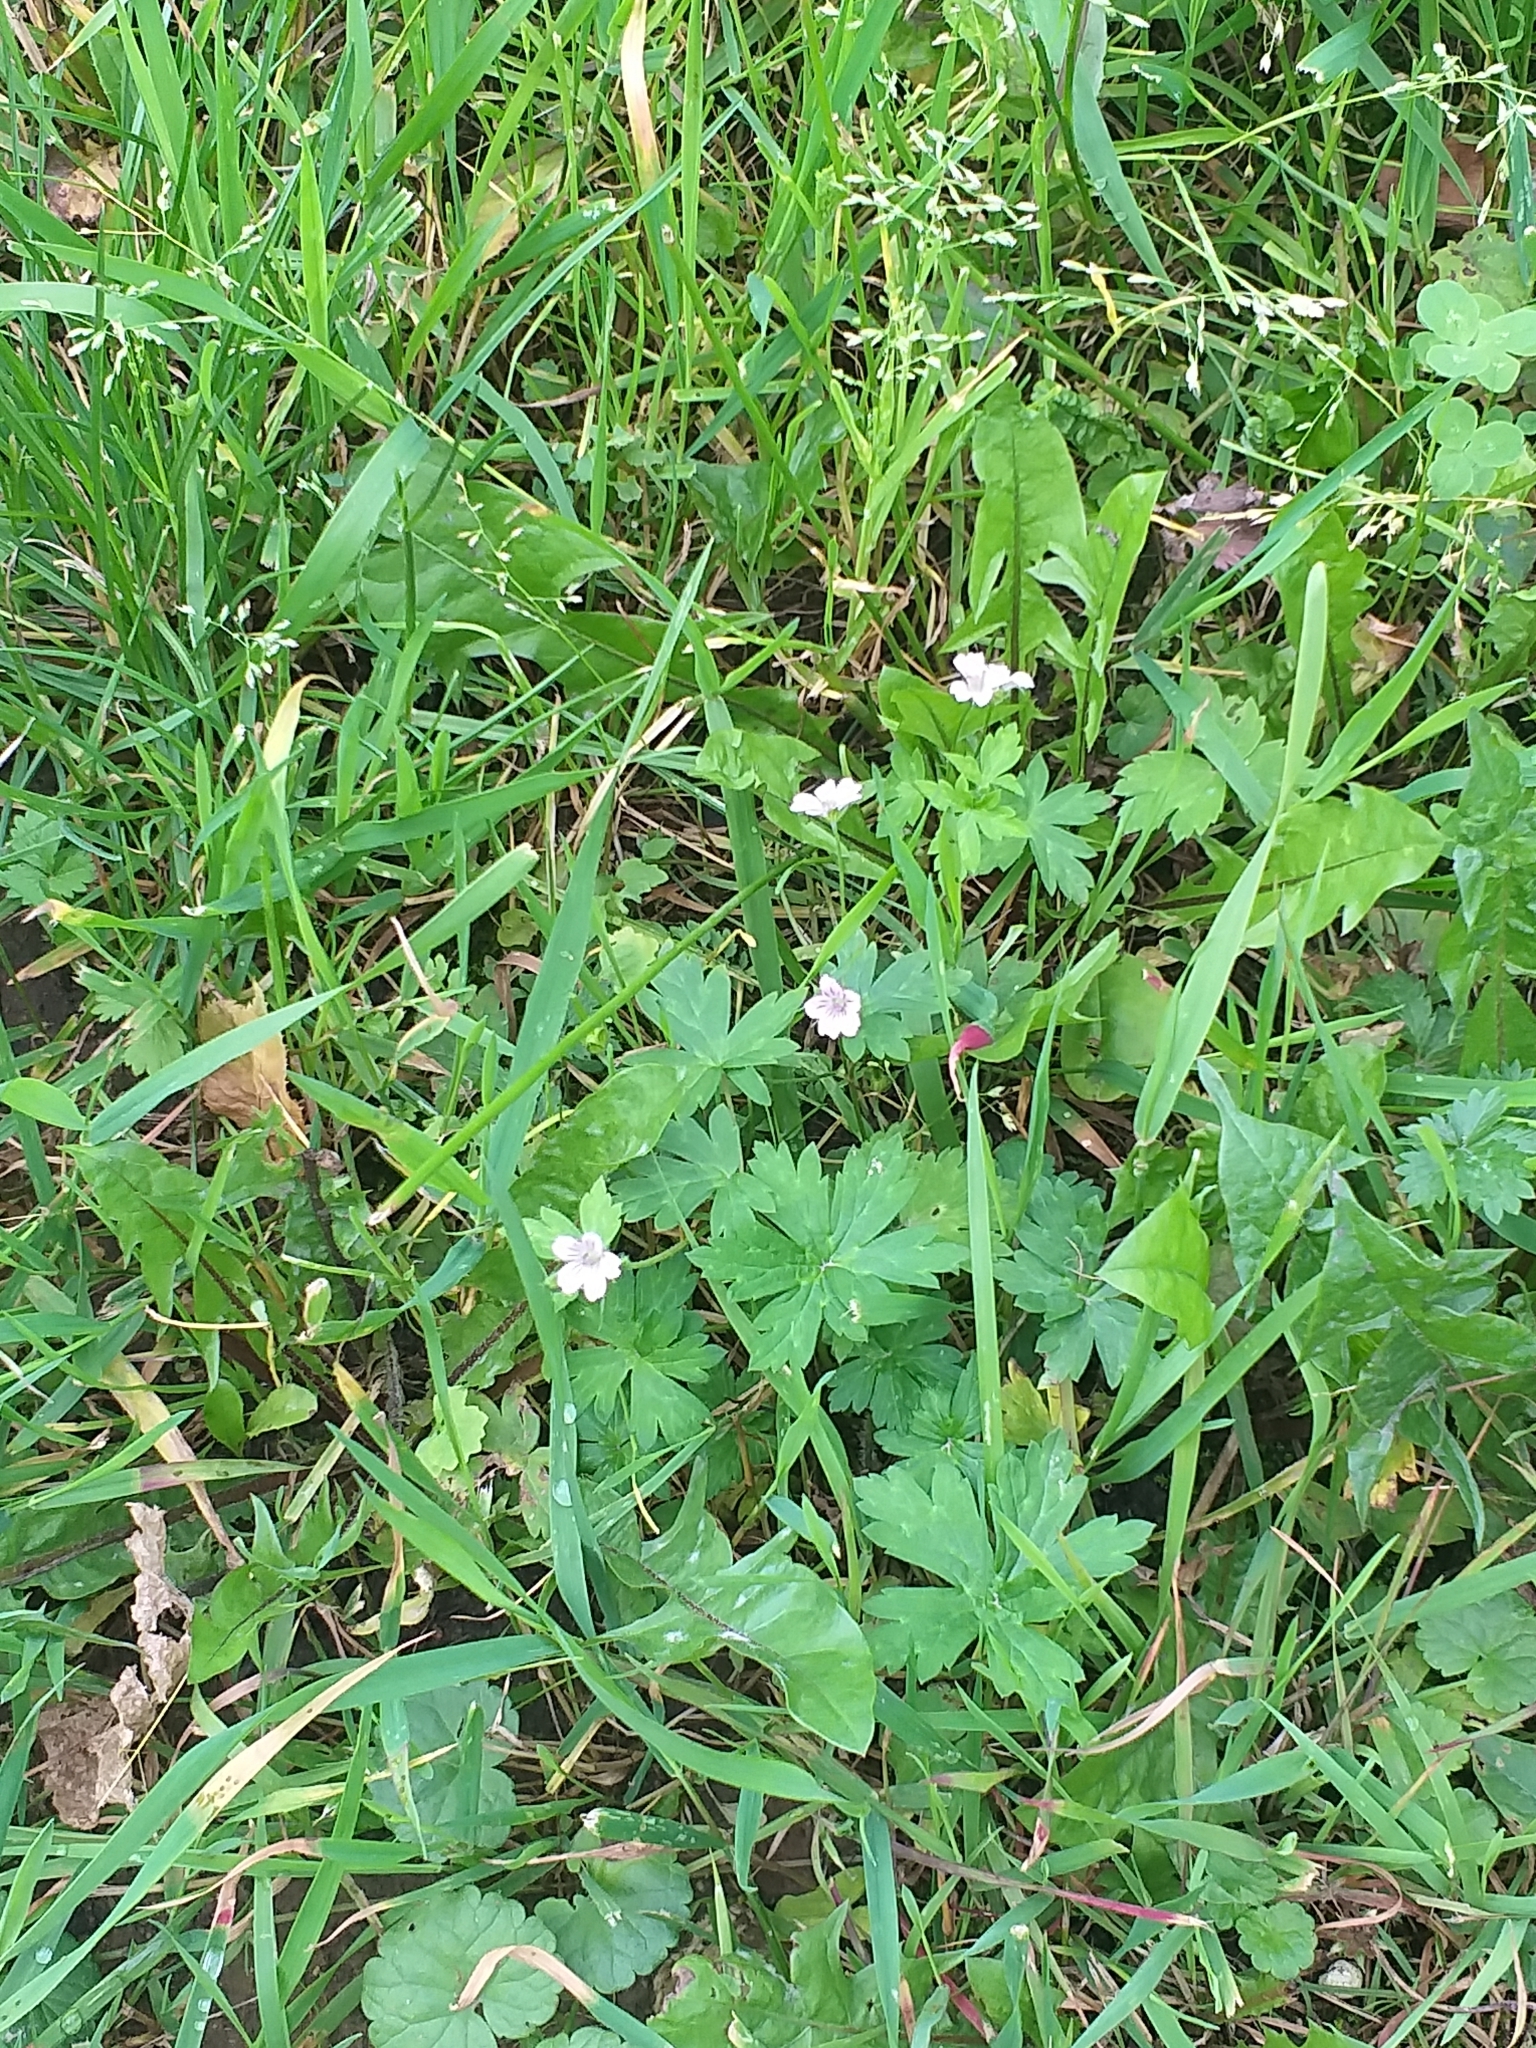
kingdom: Plantae
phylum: Tracheophyta
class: Magnoliopsida
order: Geraniales
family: Geraniaceae
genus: Geranium
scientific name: Geranium sibiricum
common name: Siberian crane's-bill
